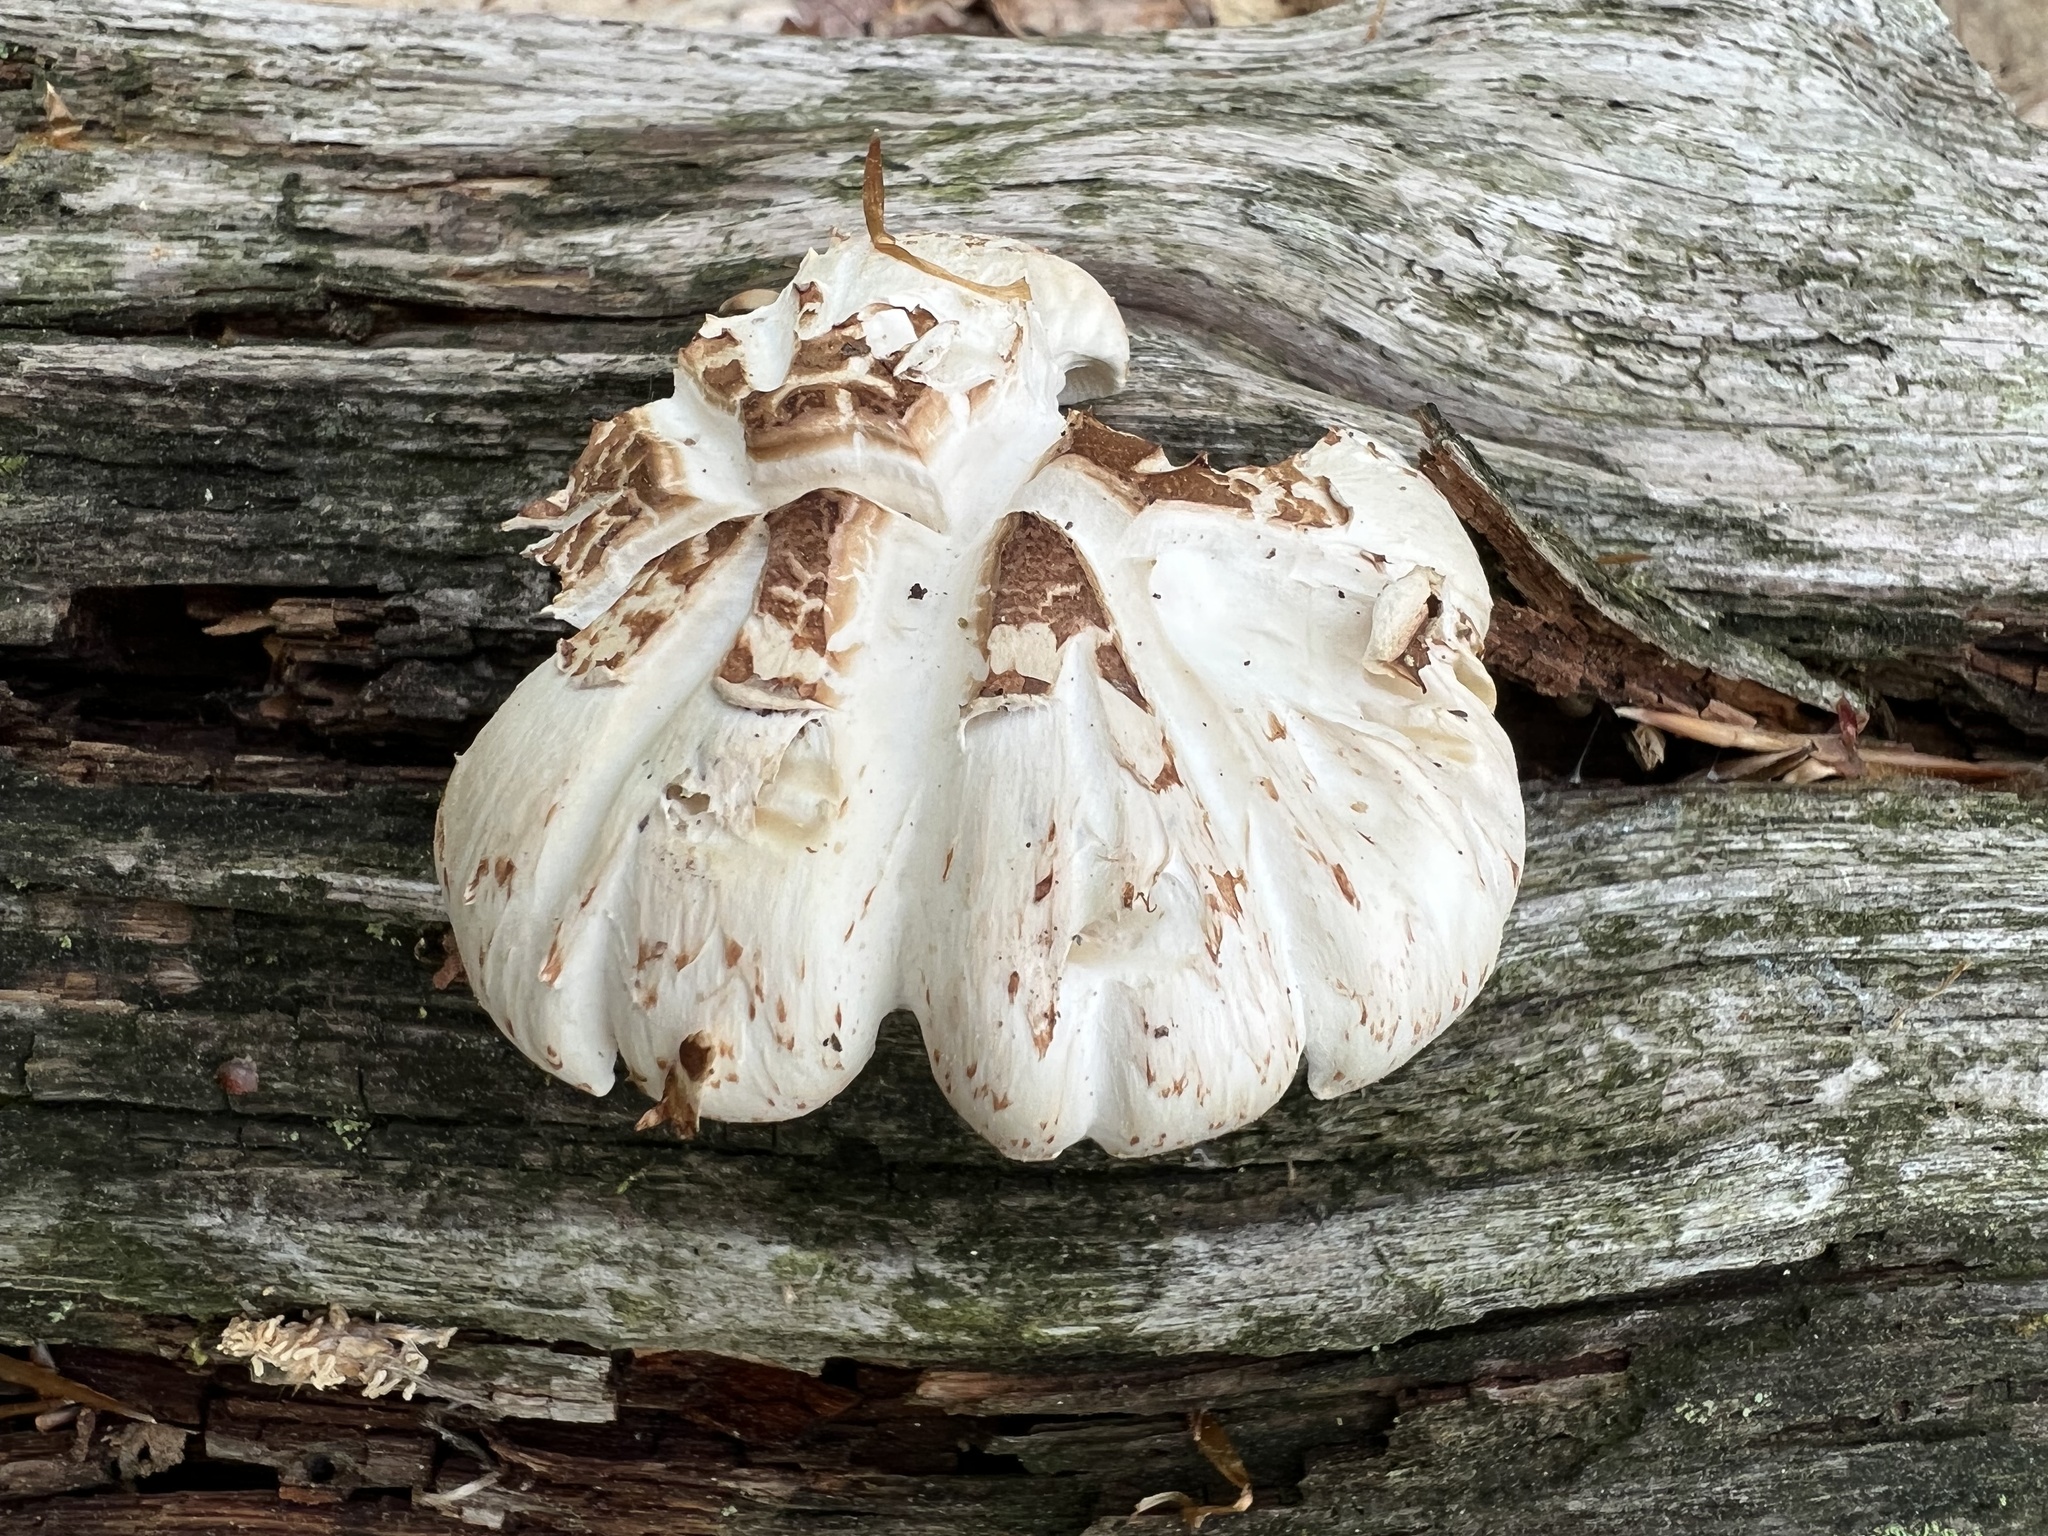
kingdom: Fungi
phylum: Basidiomycota
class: Agaricomycetes
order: Gloeophyllales
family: Gloeophyllaceae
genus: Neolentinus
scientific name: Neolentinus lepideus
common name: Scaly sawgill
